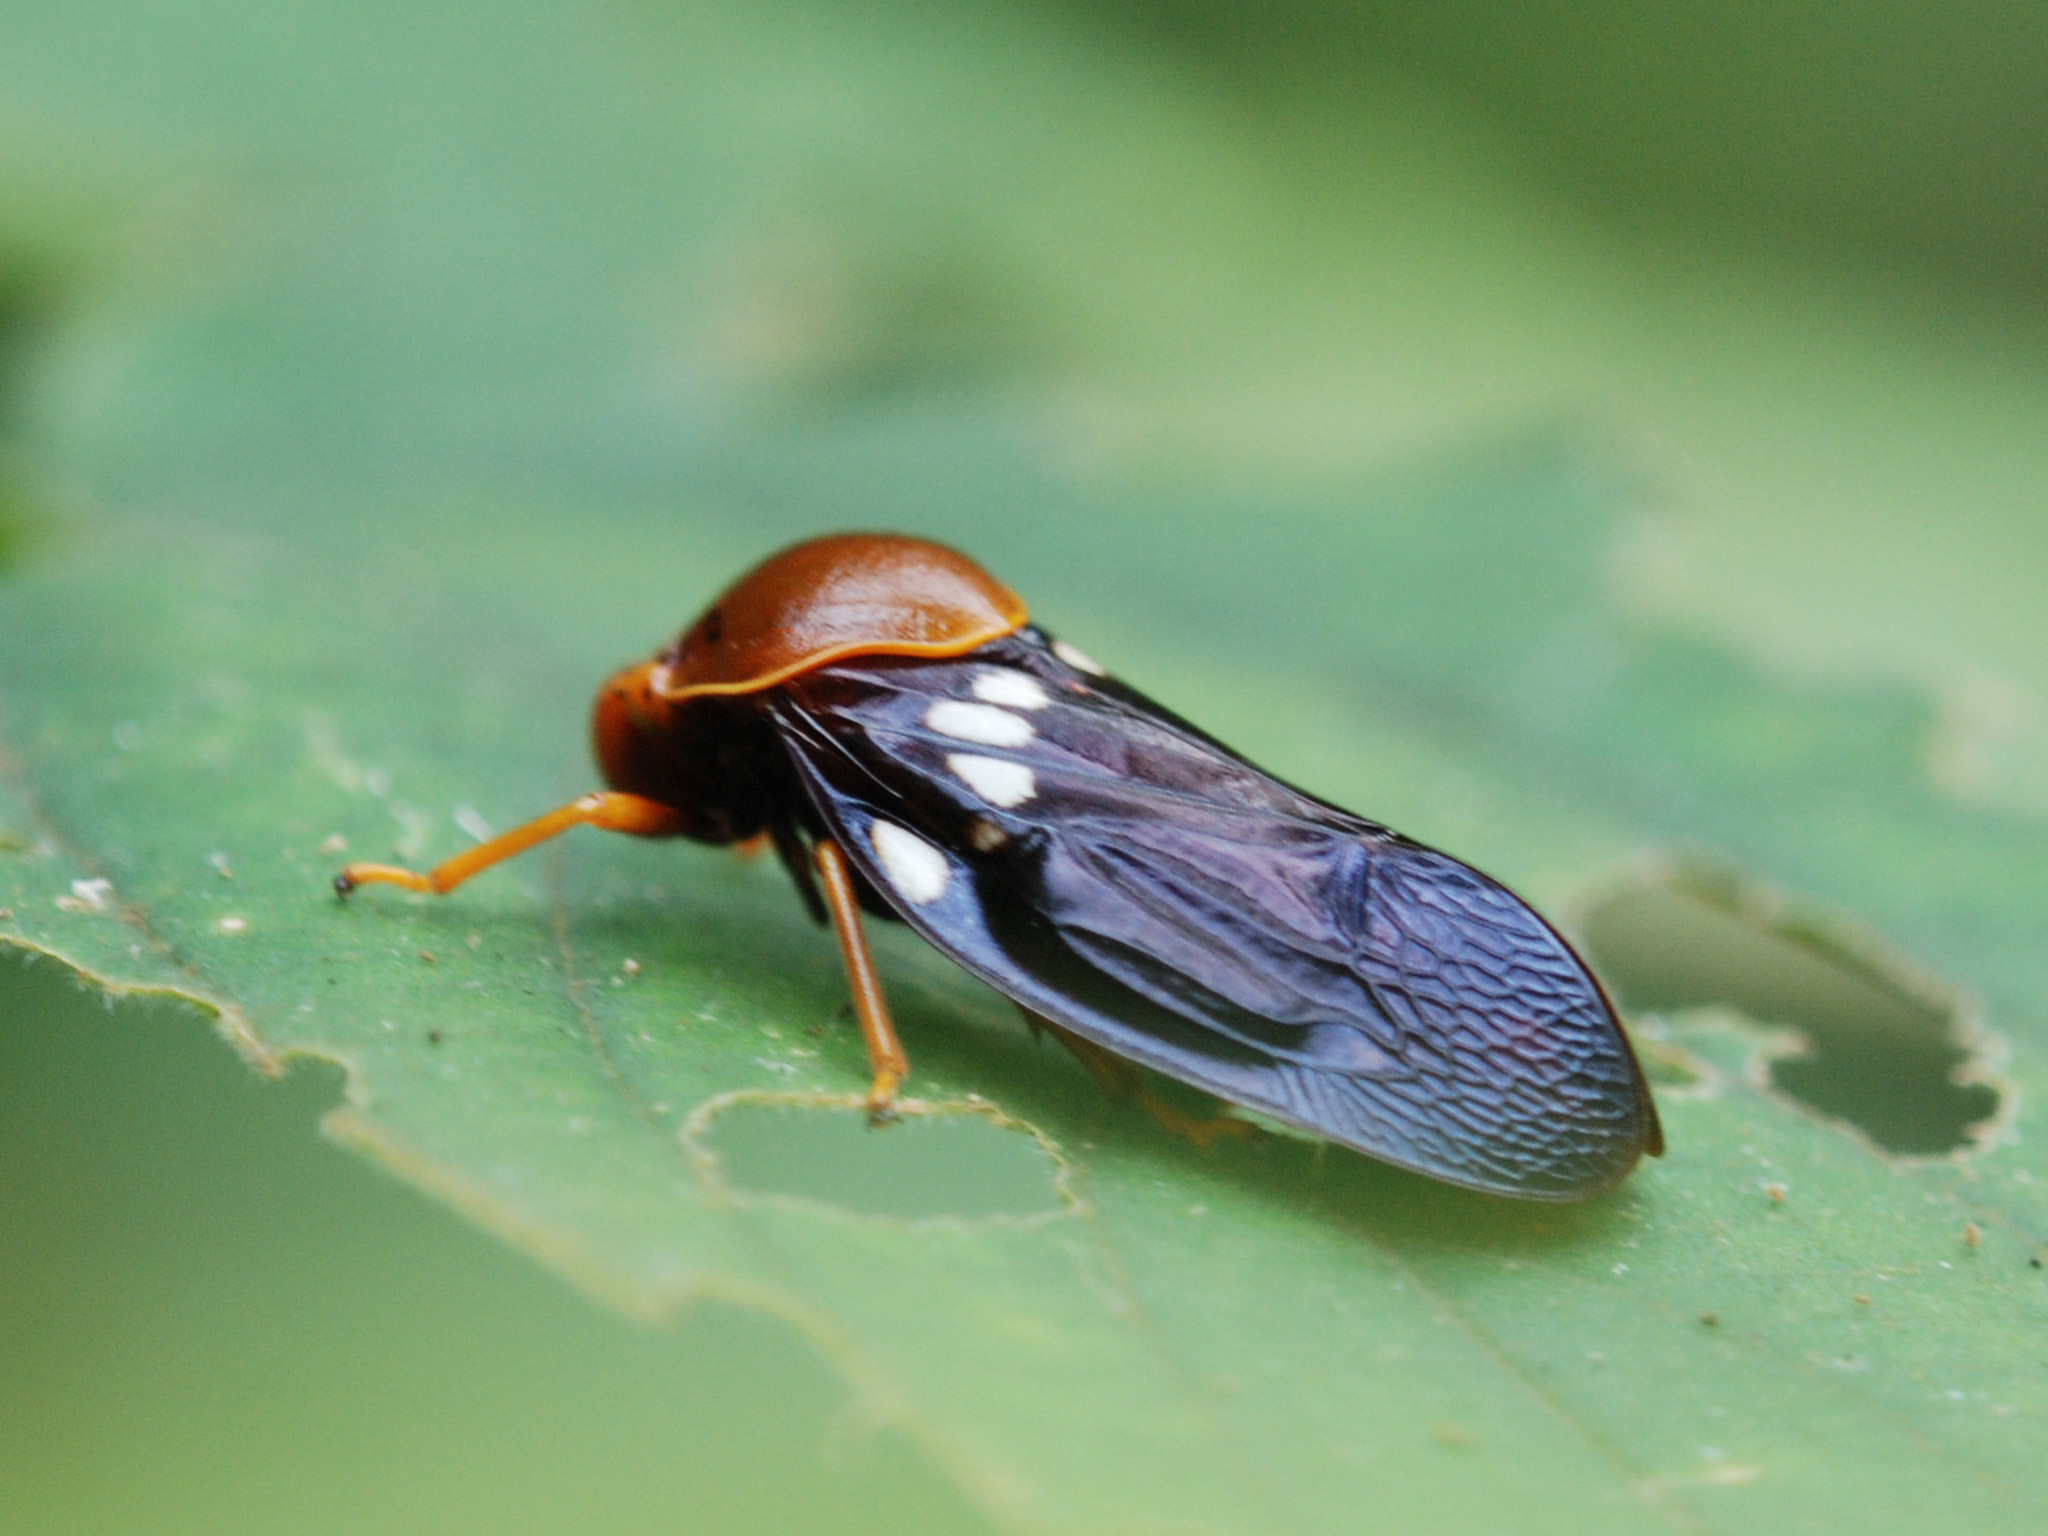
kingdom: Animalia
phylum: Arthropoda
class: Insecta
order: Hemiptera
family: Cercopidae
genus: Suracarta
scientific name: Suracarta tricolor
